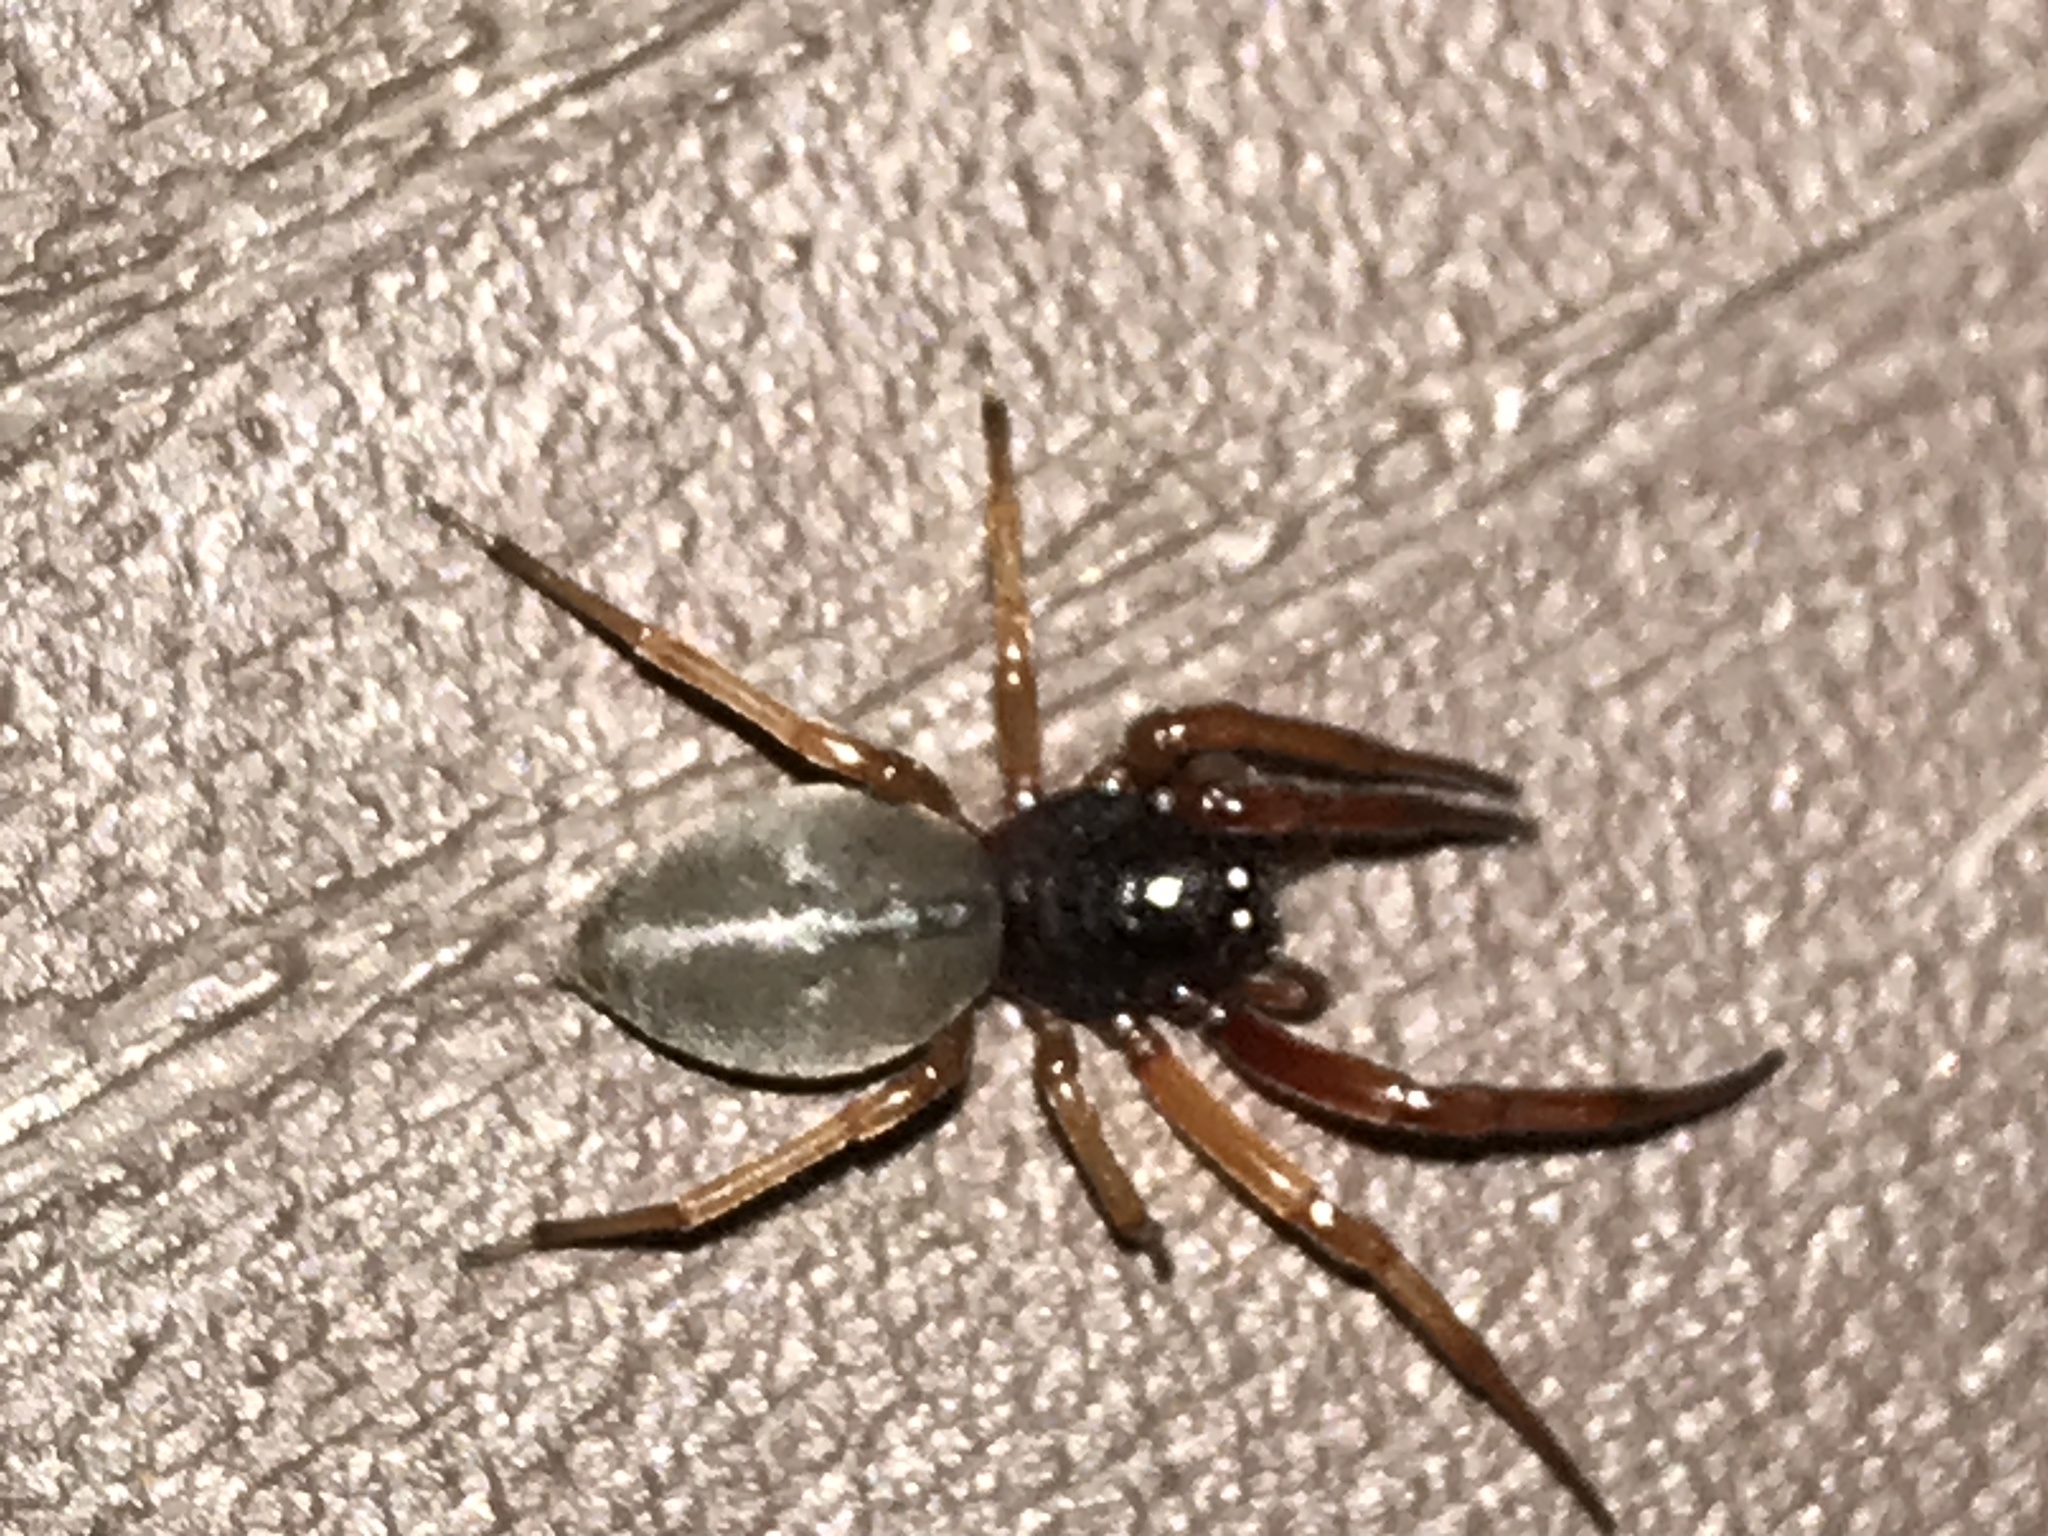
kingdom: Animalia
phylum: Arthropoda
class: Arachnida
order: Araneae
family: Trachelidae
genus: Trachelas
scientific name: Trachelas tranquillus
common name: Broad-faced sac spider
